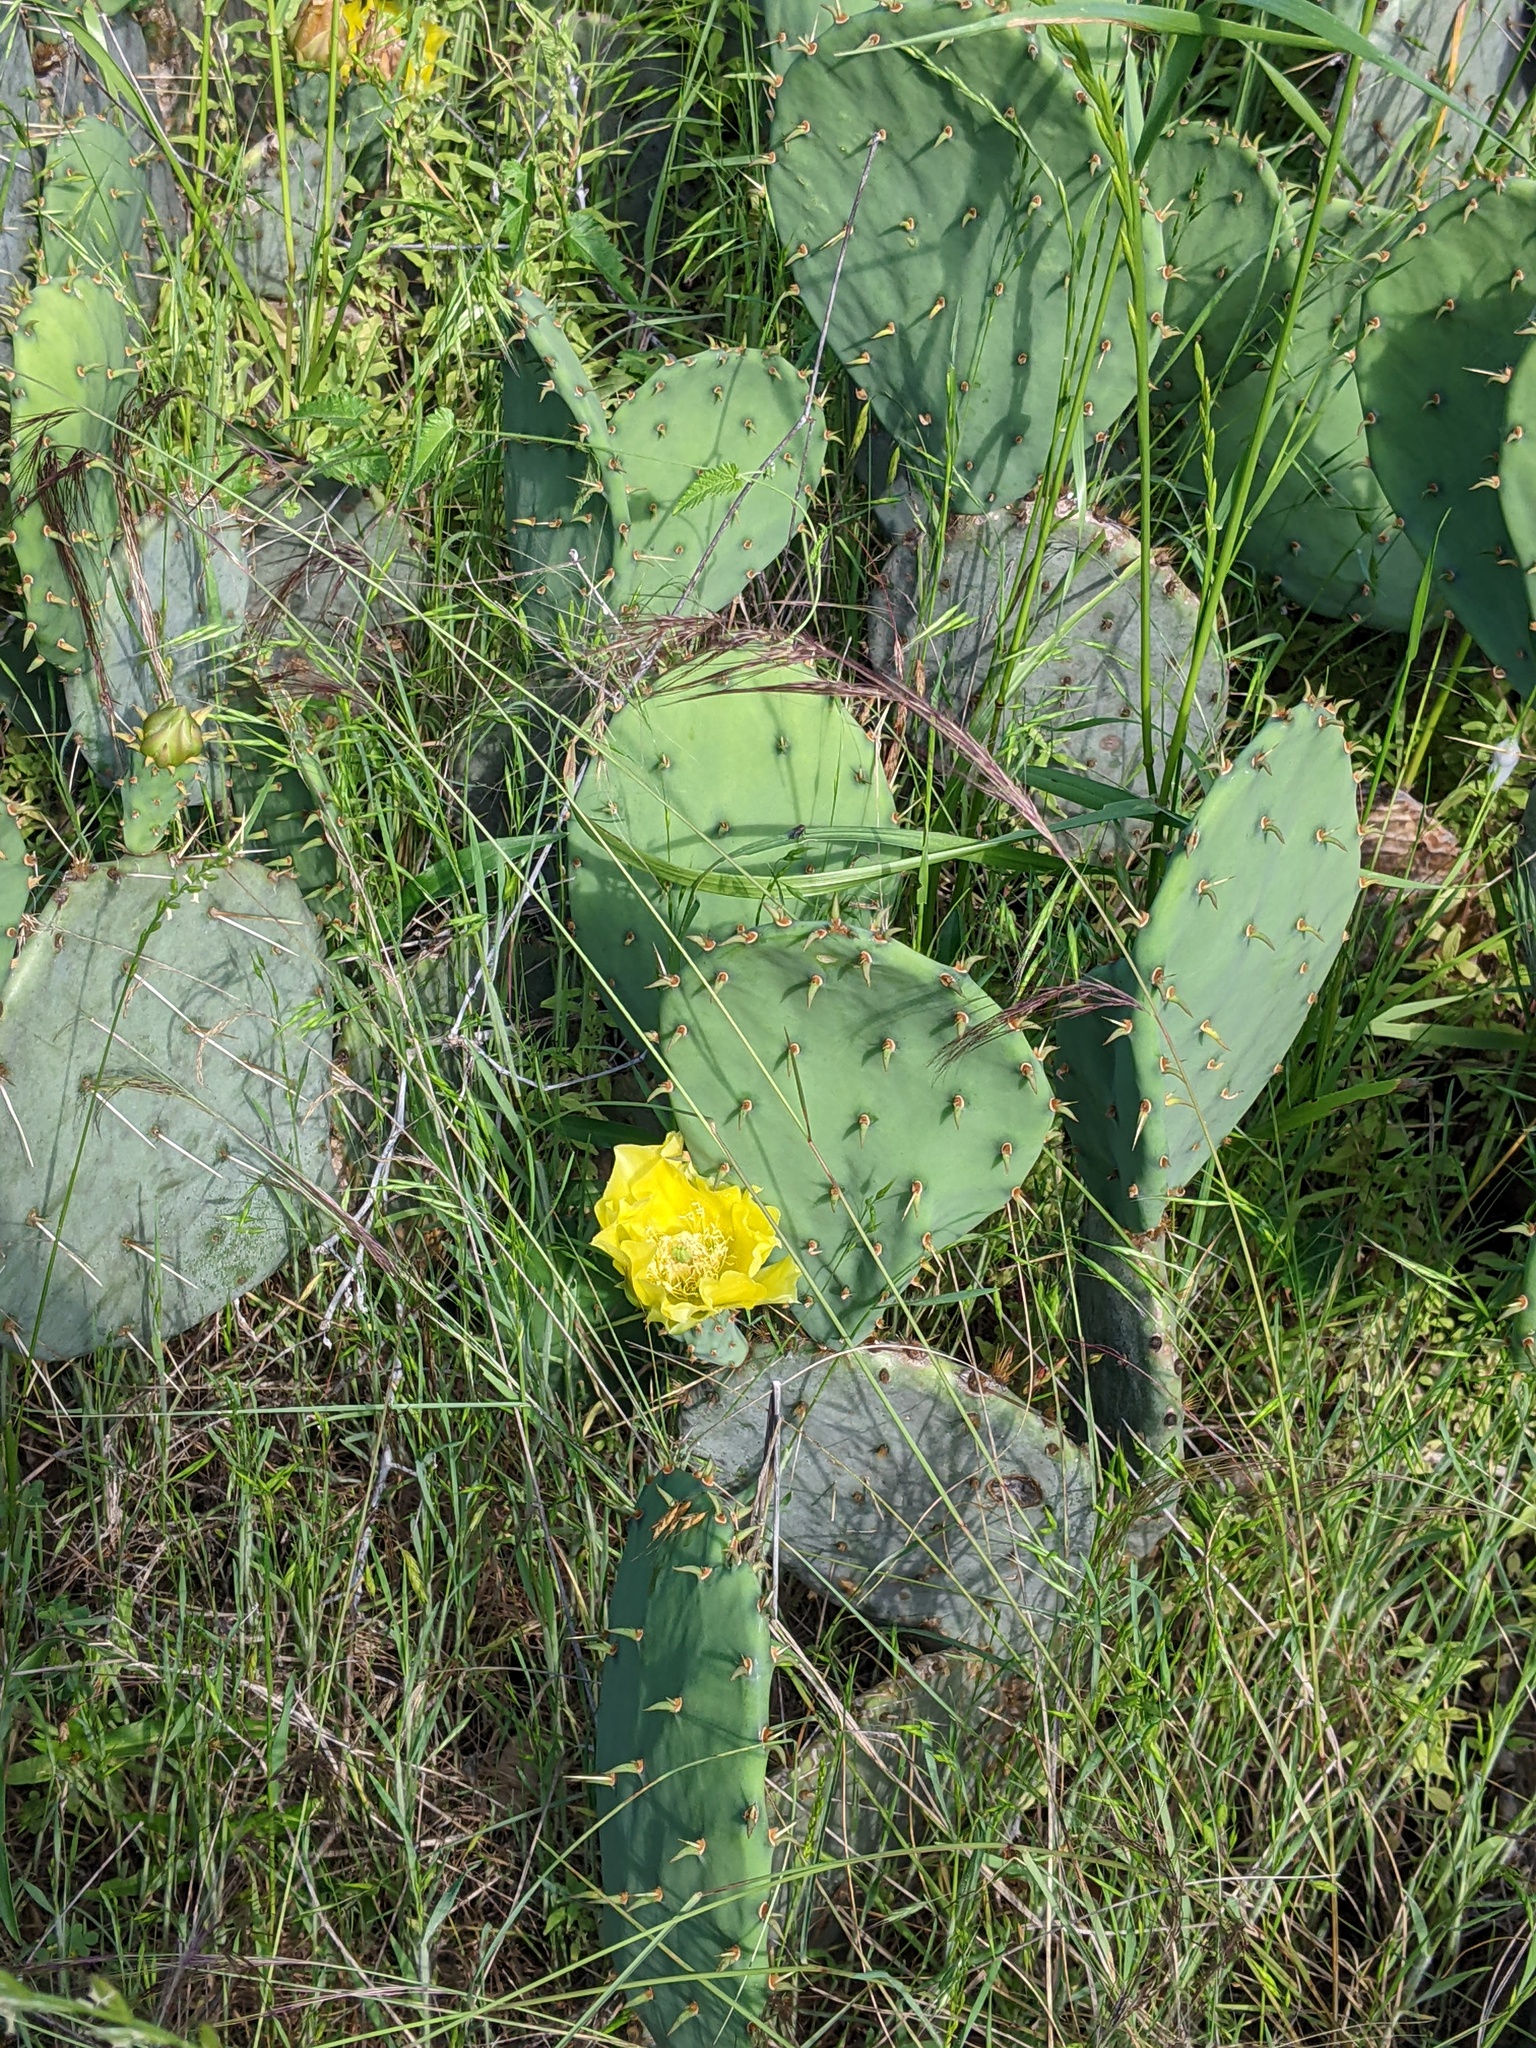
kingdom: Plantae
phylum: Tracheophyta
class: Magnoliopsida
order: Caryophyllales
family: Cactaceae
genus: Opuntia
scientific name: Opuntia engelmannii
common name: Cactus-apple
